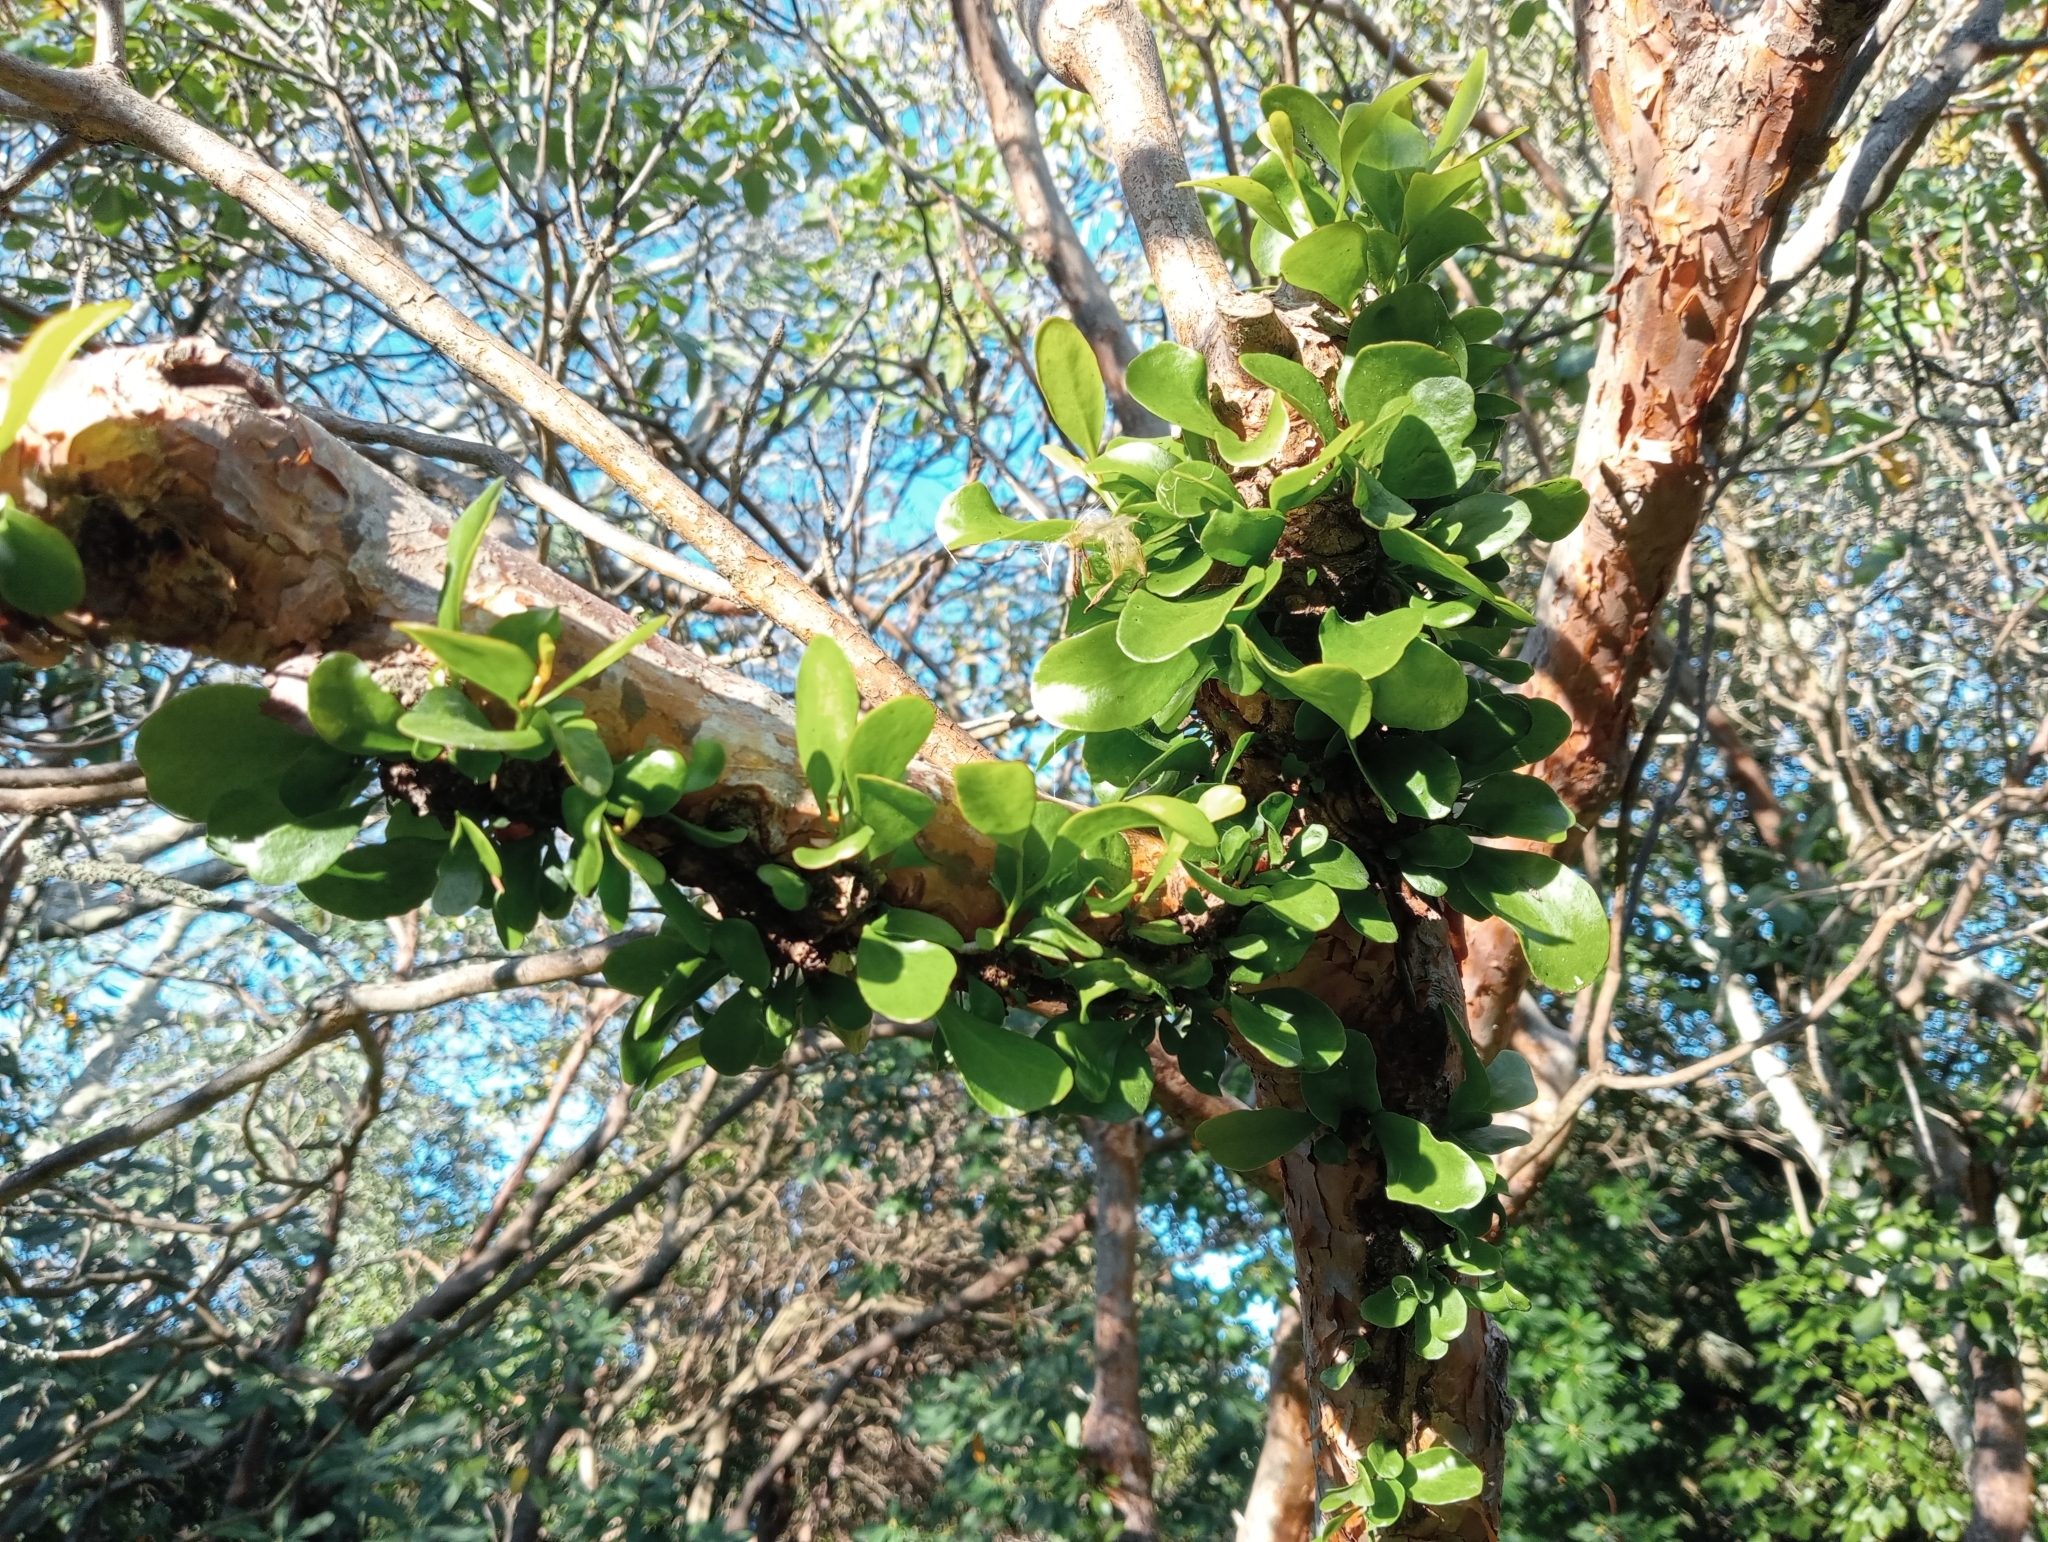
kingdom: Plantae
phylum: Tracheophyta
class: Magnoliopsida
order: Santalales
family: Loranthaceae
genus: Ileostylus
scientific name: Ileostylus micranthus
